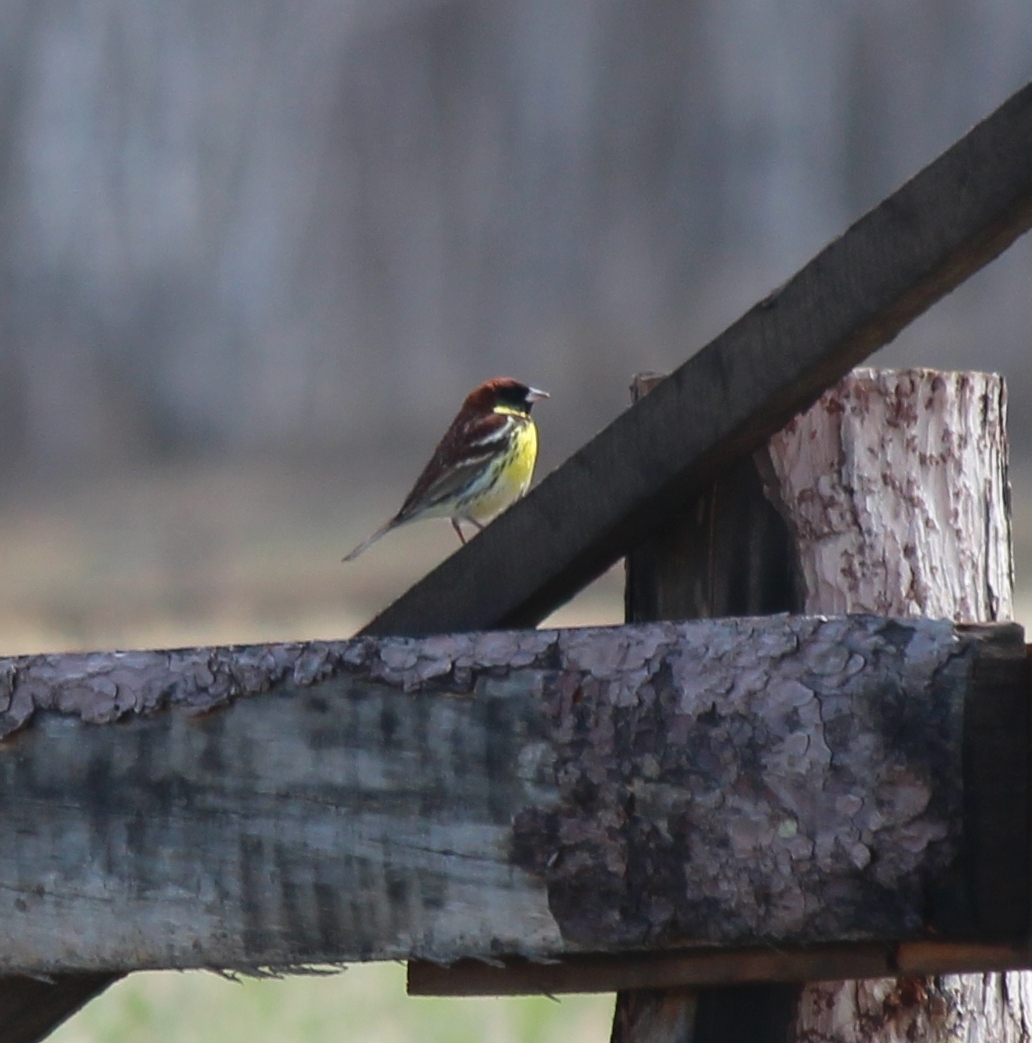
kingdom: Animalia
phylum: Chordata
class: Aves
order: Passeriformes
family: Emberizidae
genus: Emberiza
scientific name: Emberiza aureola
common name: Yellow-breasted bunting
